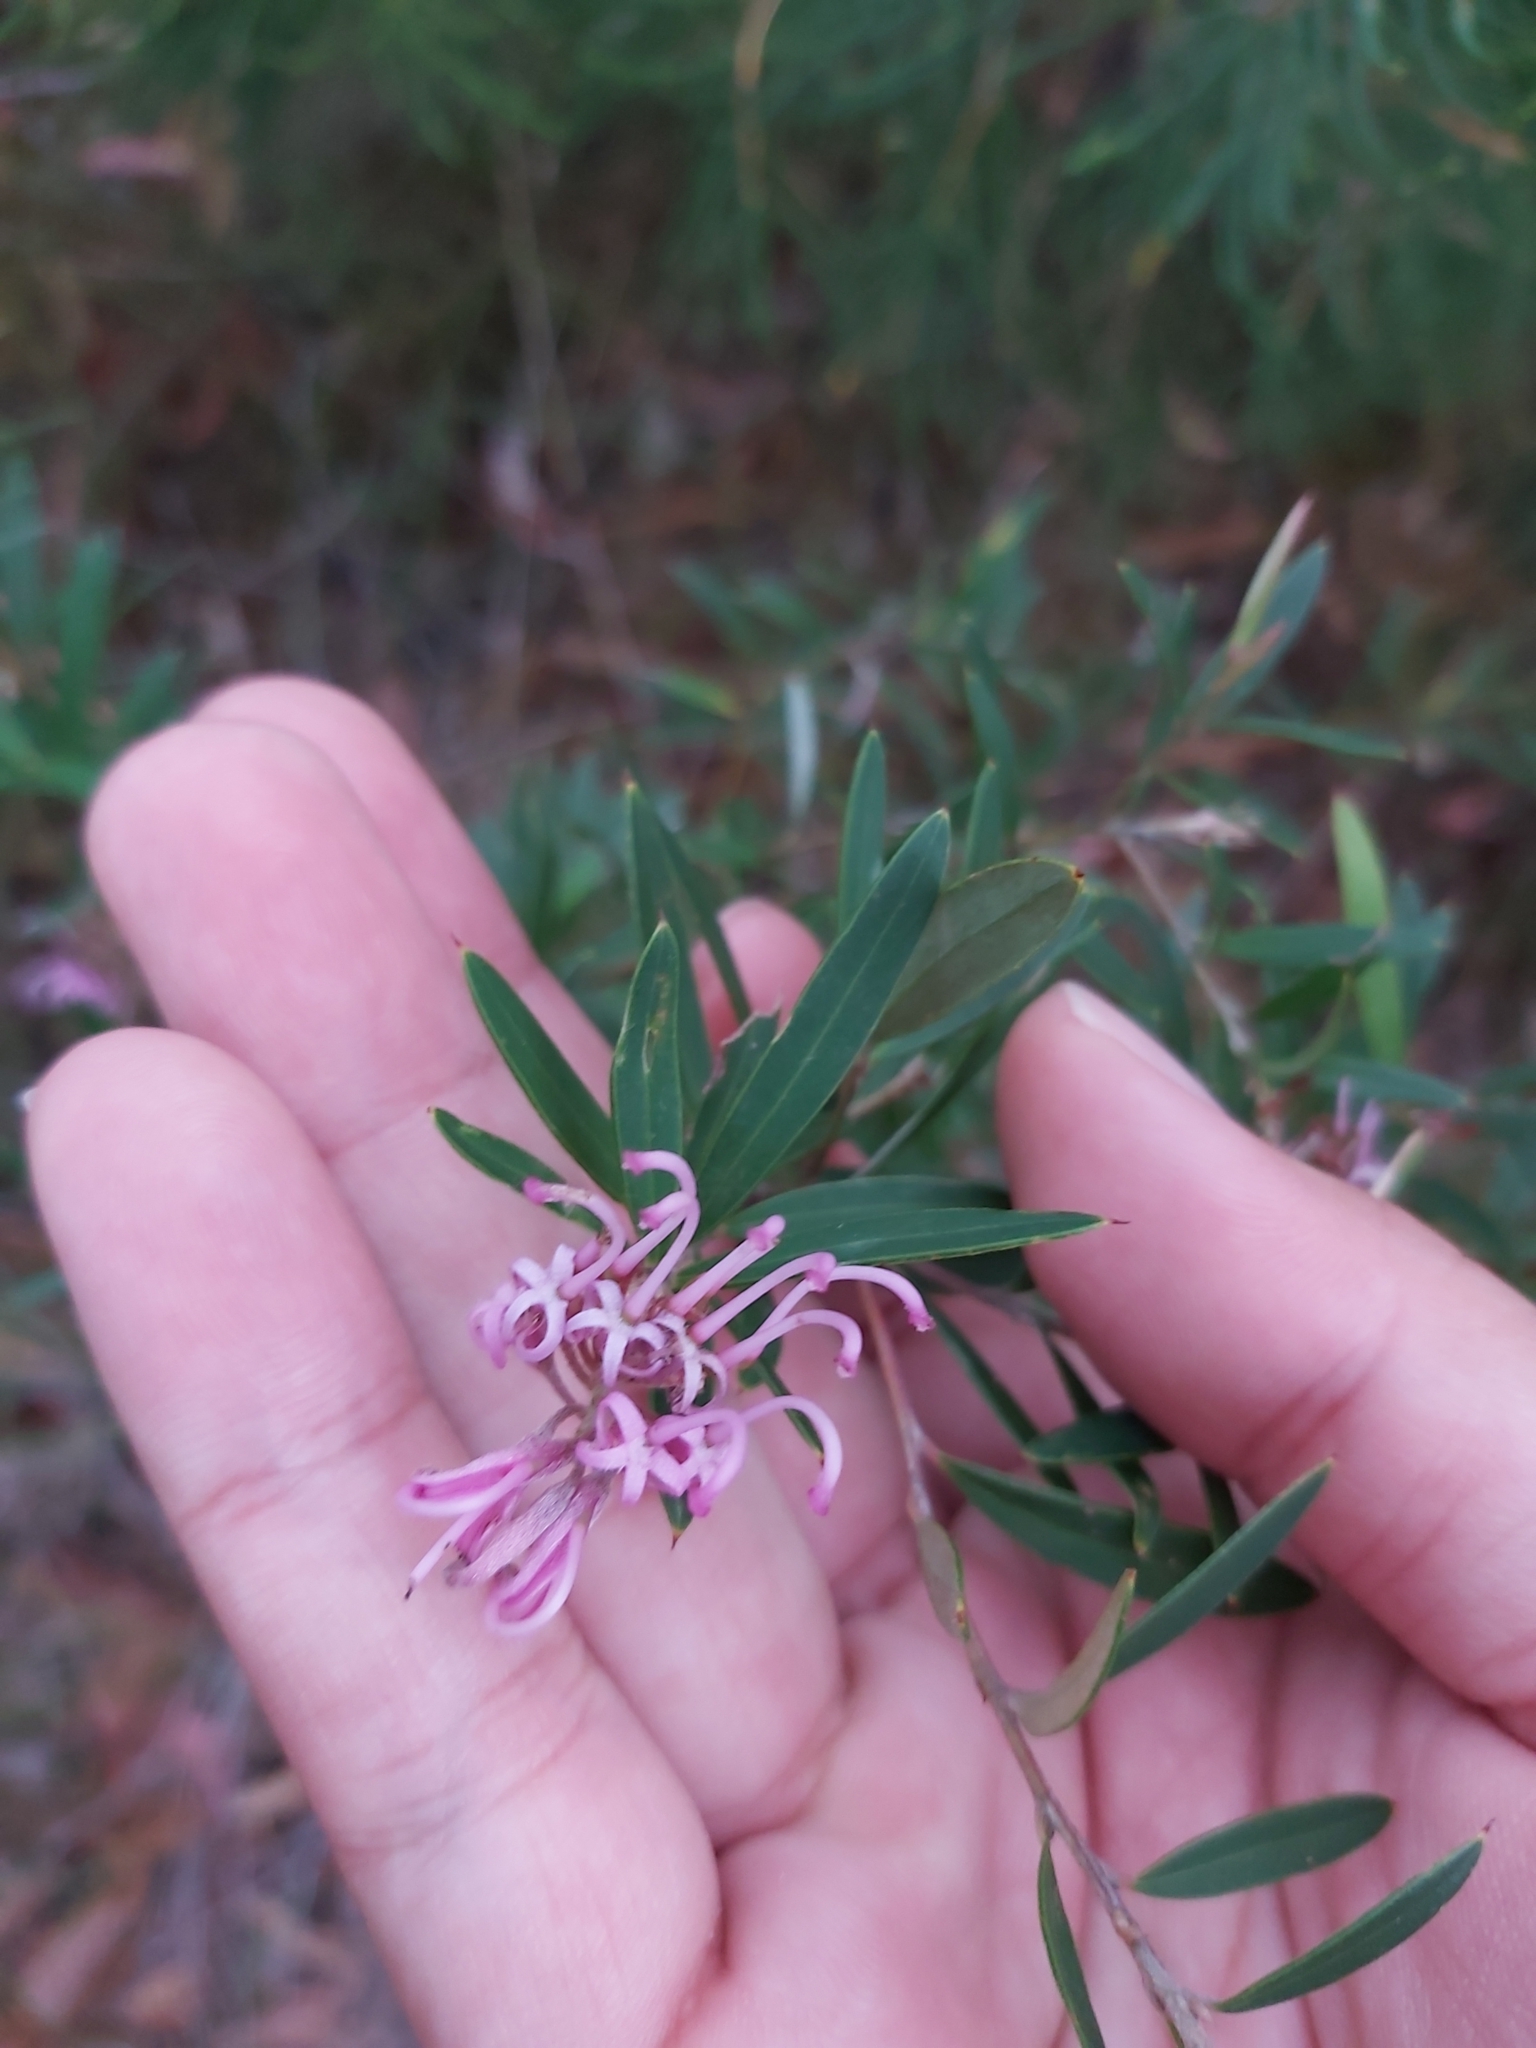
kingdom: Plantae
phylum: Tracheophyta
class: Magnoliopsida
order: Proteales
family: Proteaceae
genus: Grevillea
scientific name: Grevillea sericea
